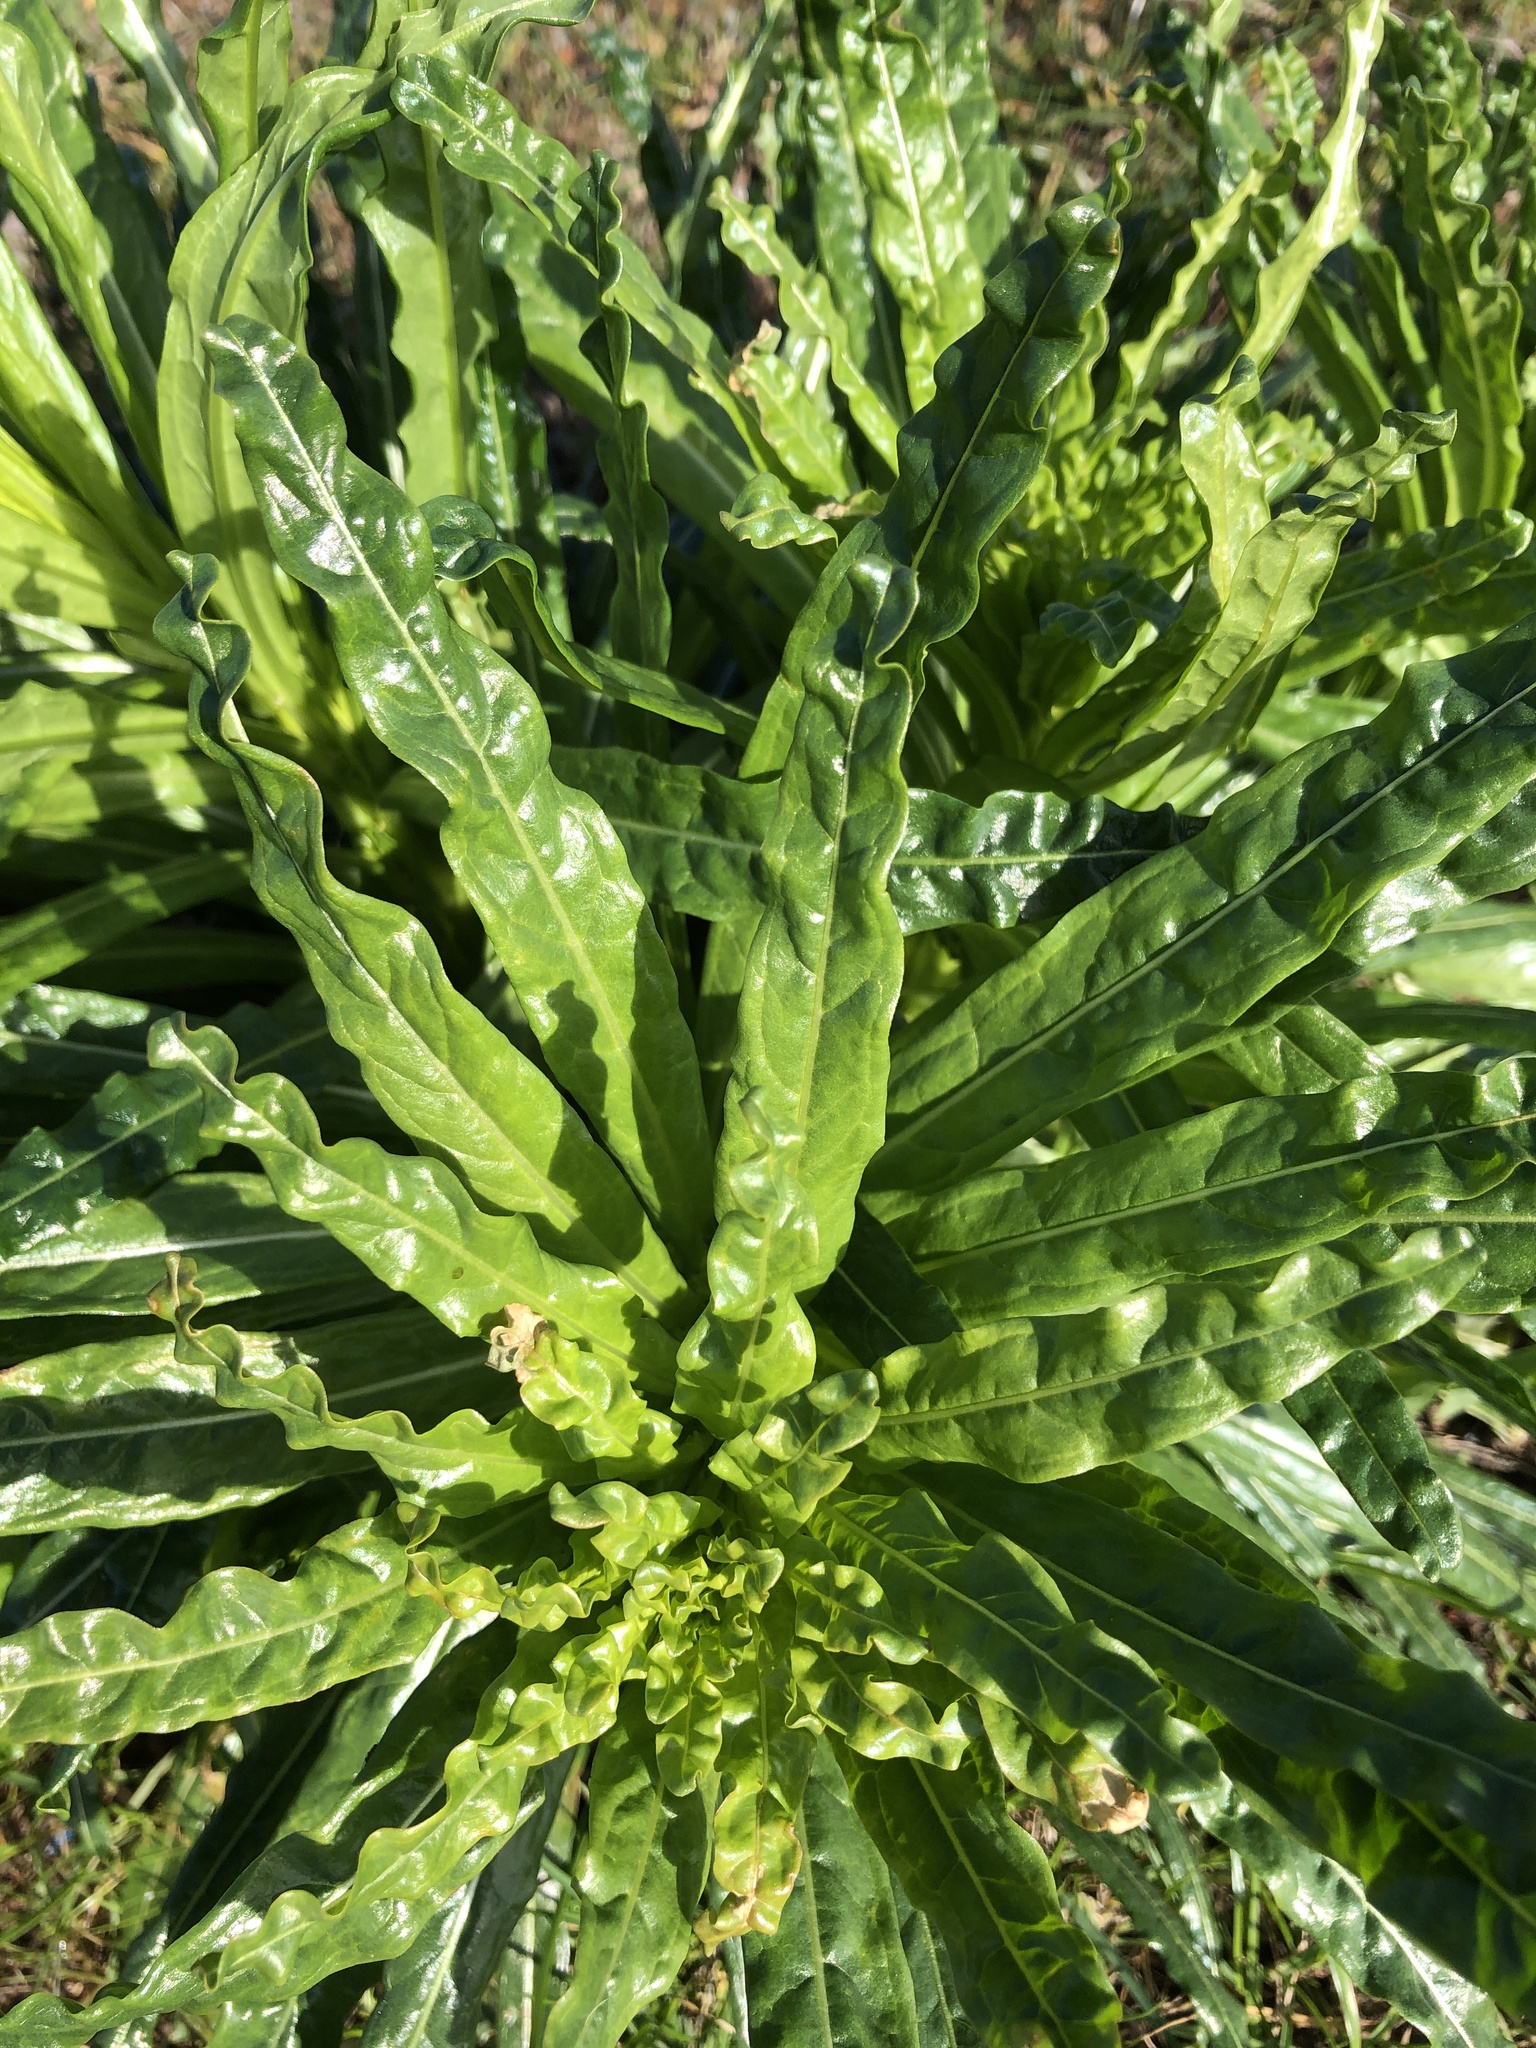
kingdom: Plantae
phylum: Tracheophyta
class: Magnoliopsida
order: Brassicales
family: Resedaceae
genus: Reseda
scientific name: Reseda luteola
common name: Weld
